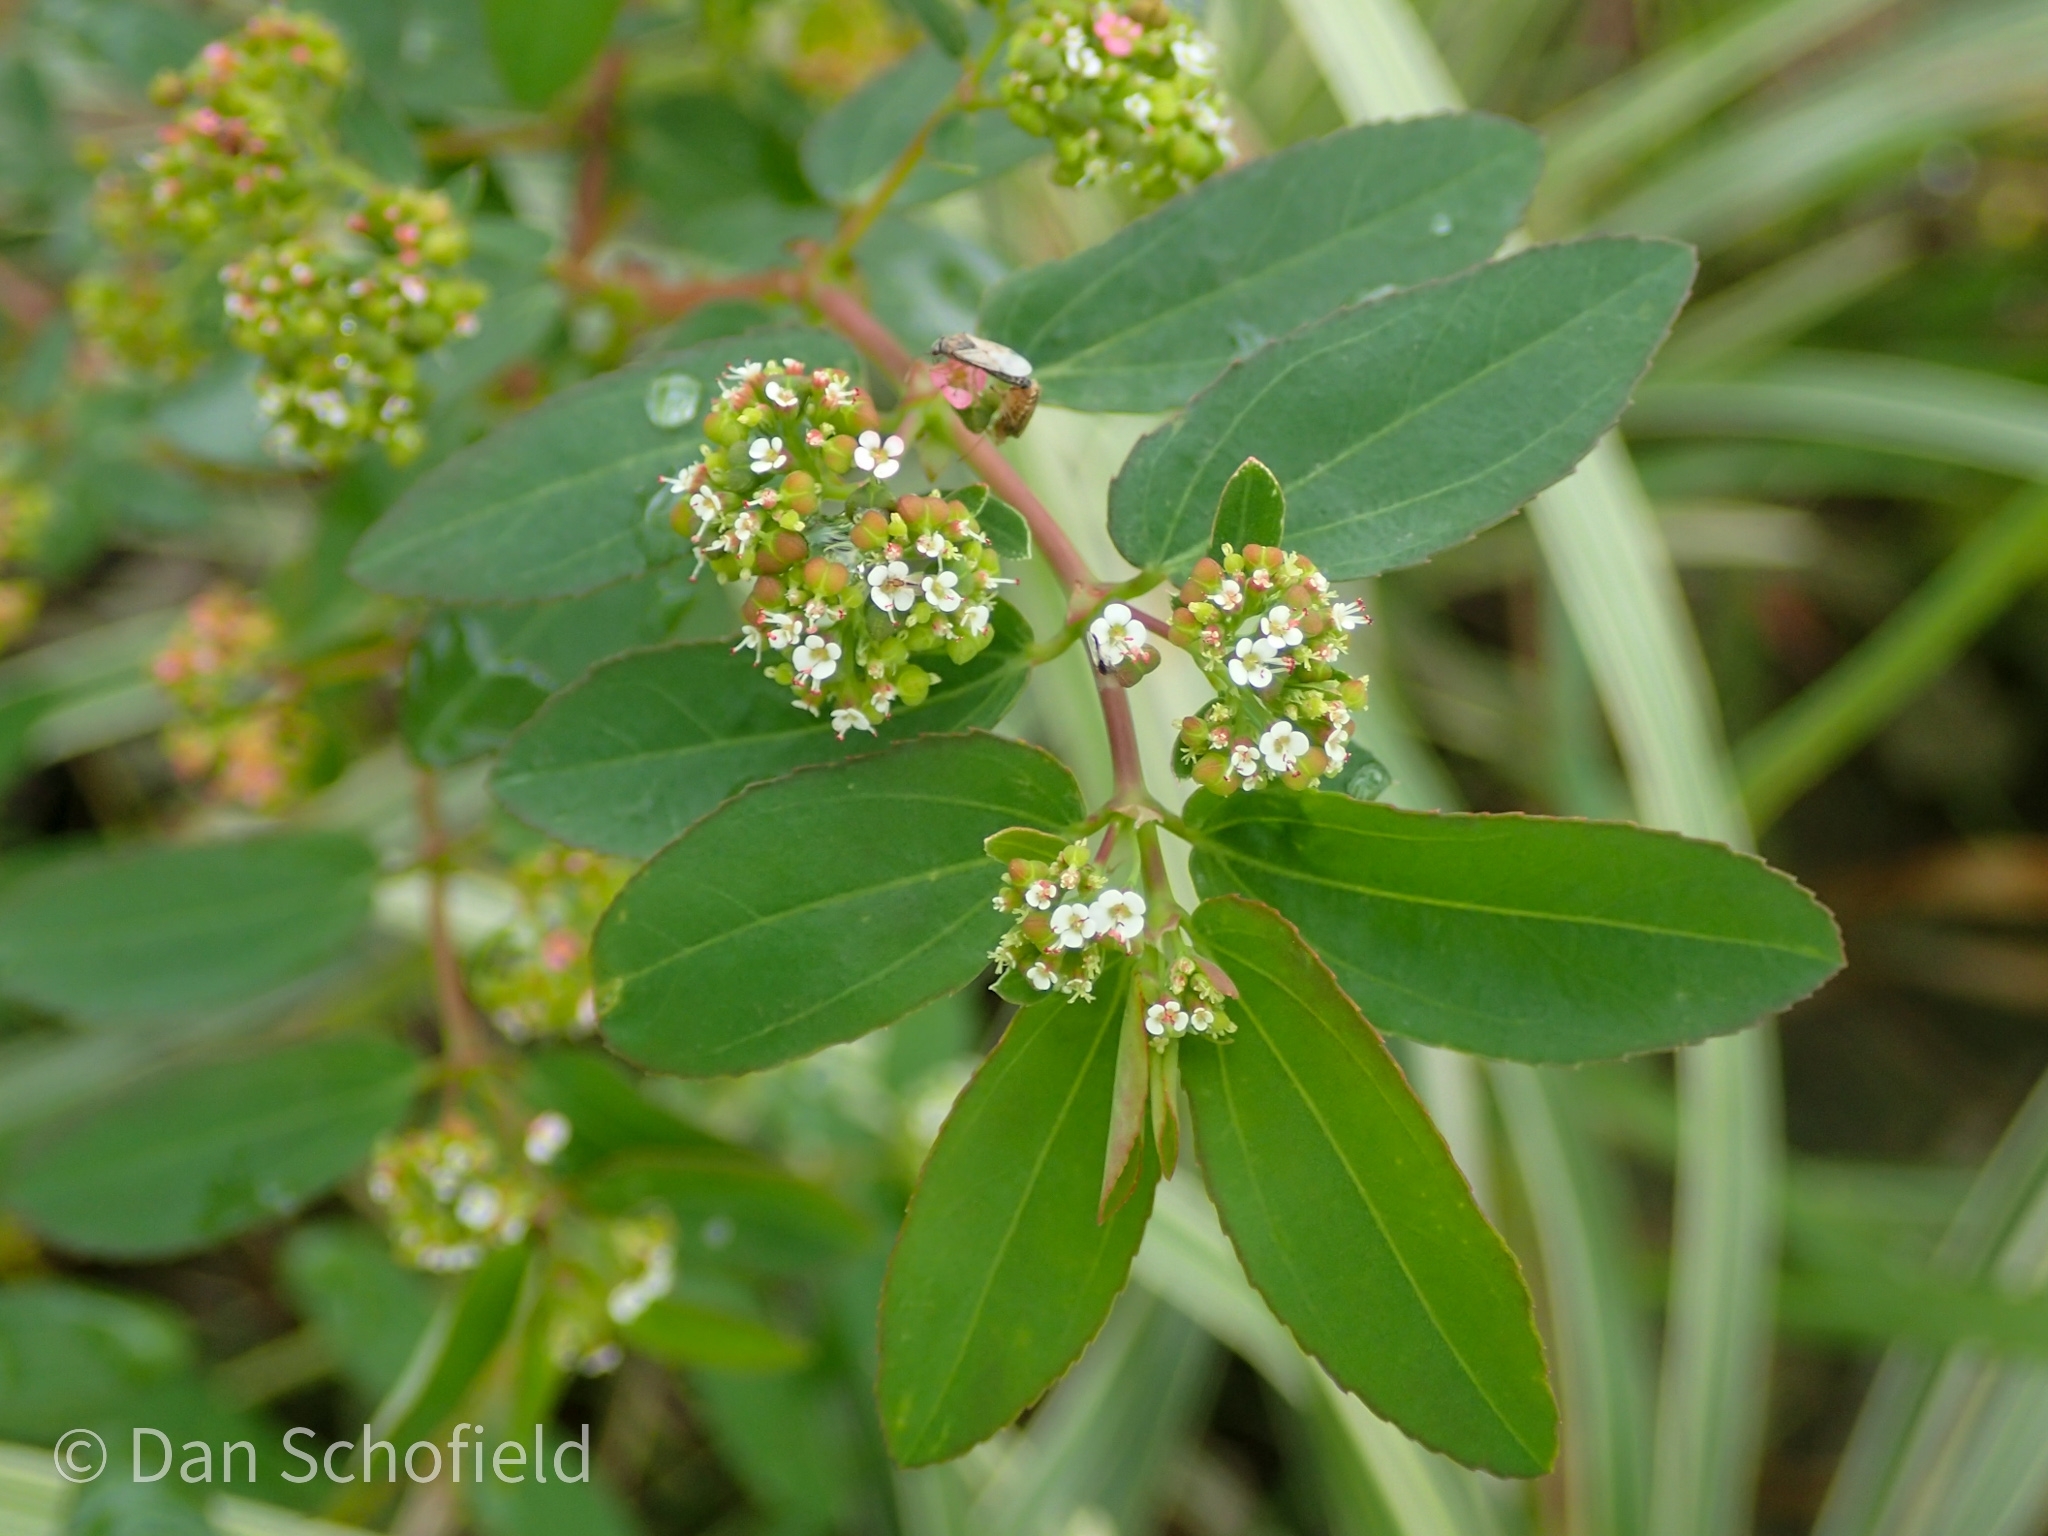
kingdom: Plantae
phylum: Tracheophyta
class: Magnoliopsida
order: Malpighiales
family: Euphorbiaceae
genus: Euphorbia
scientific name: Euphorbia hypericifolia
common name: Graceful sandmat
